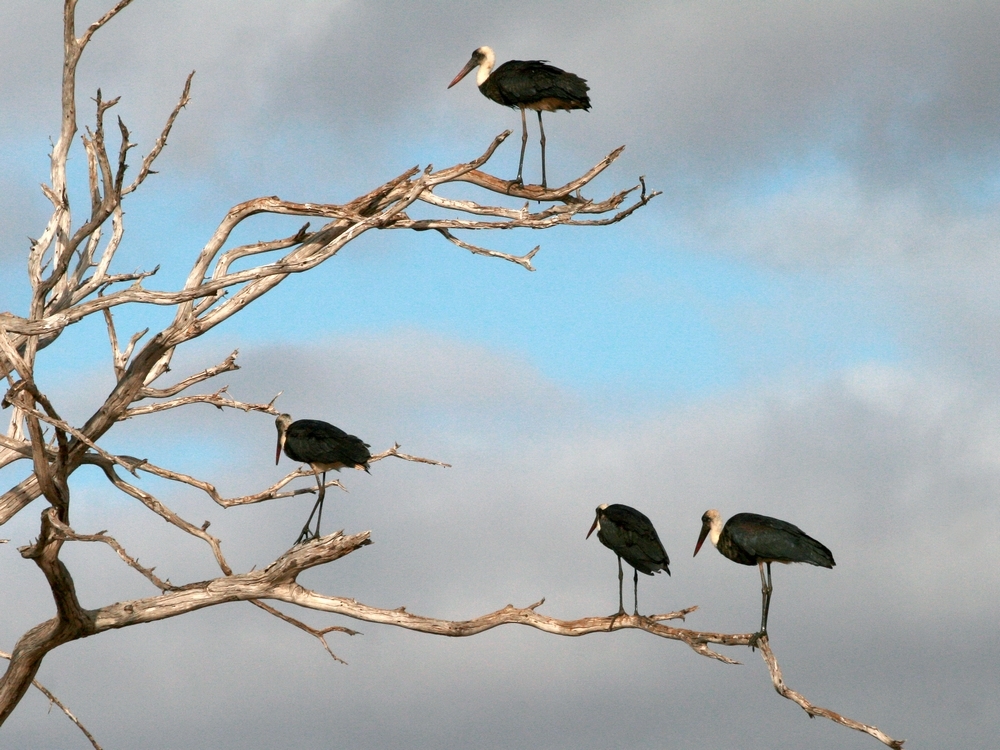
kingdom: Animalia
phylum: Chordata
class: Aves
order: Ciconiiformes
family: Ciconiidae
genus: Ciconia
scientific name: Ciconia microscelis
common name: African woollyneck
